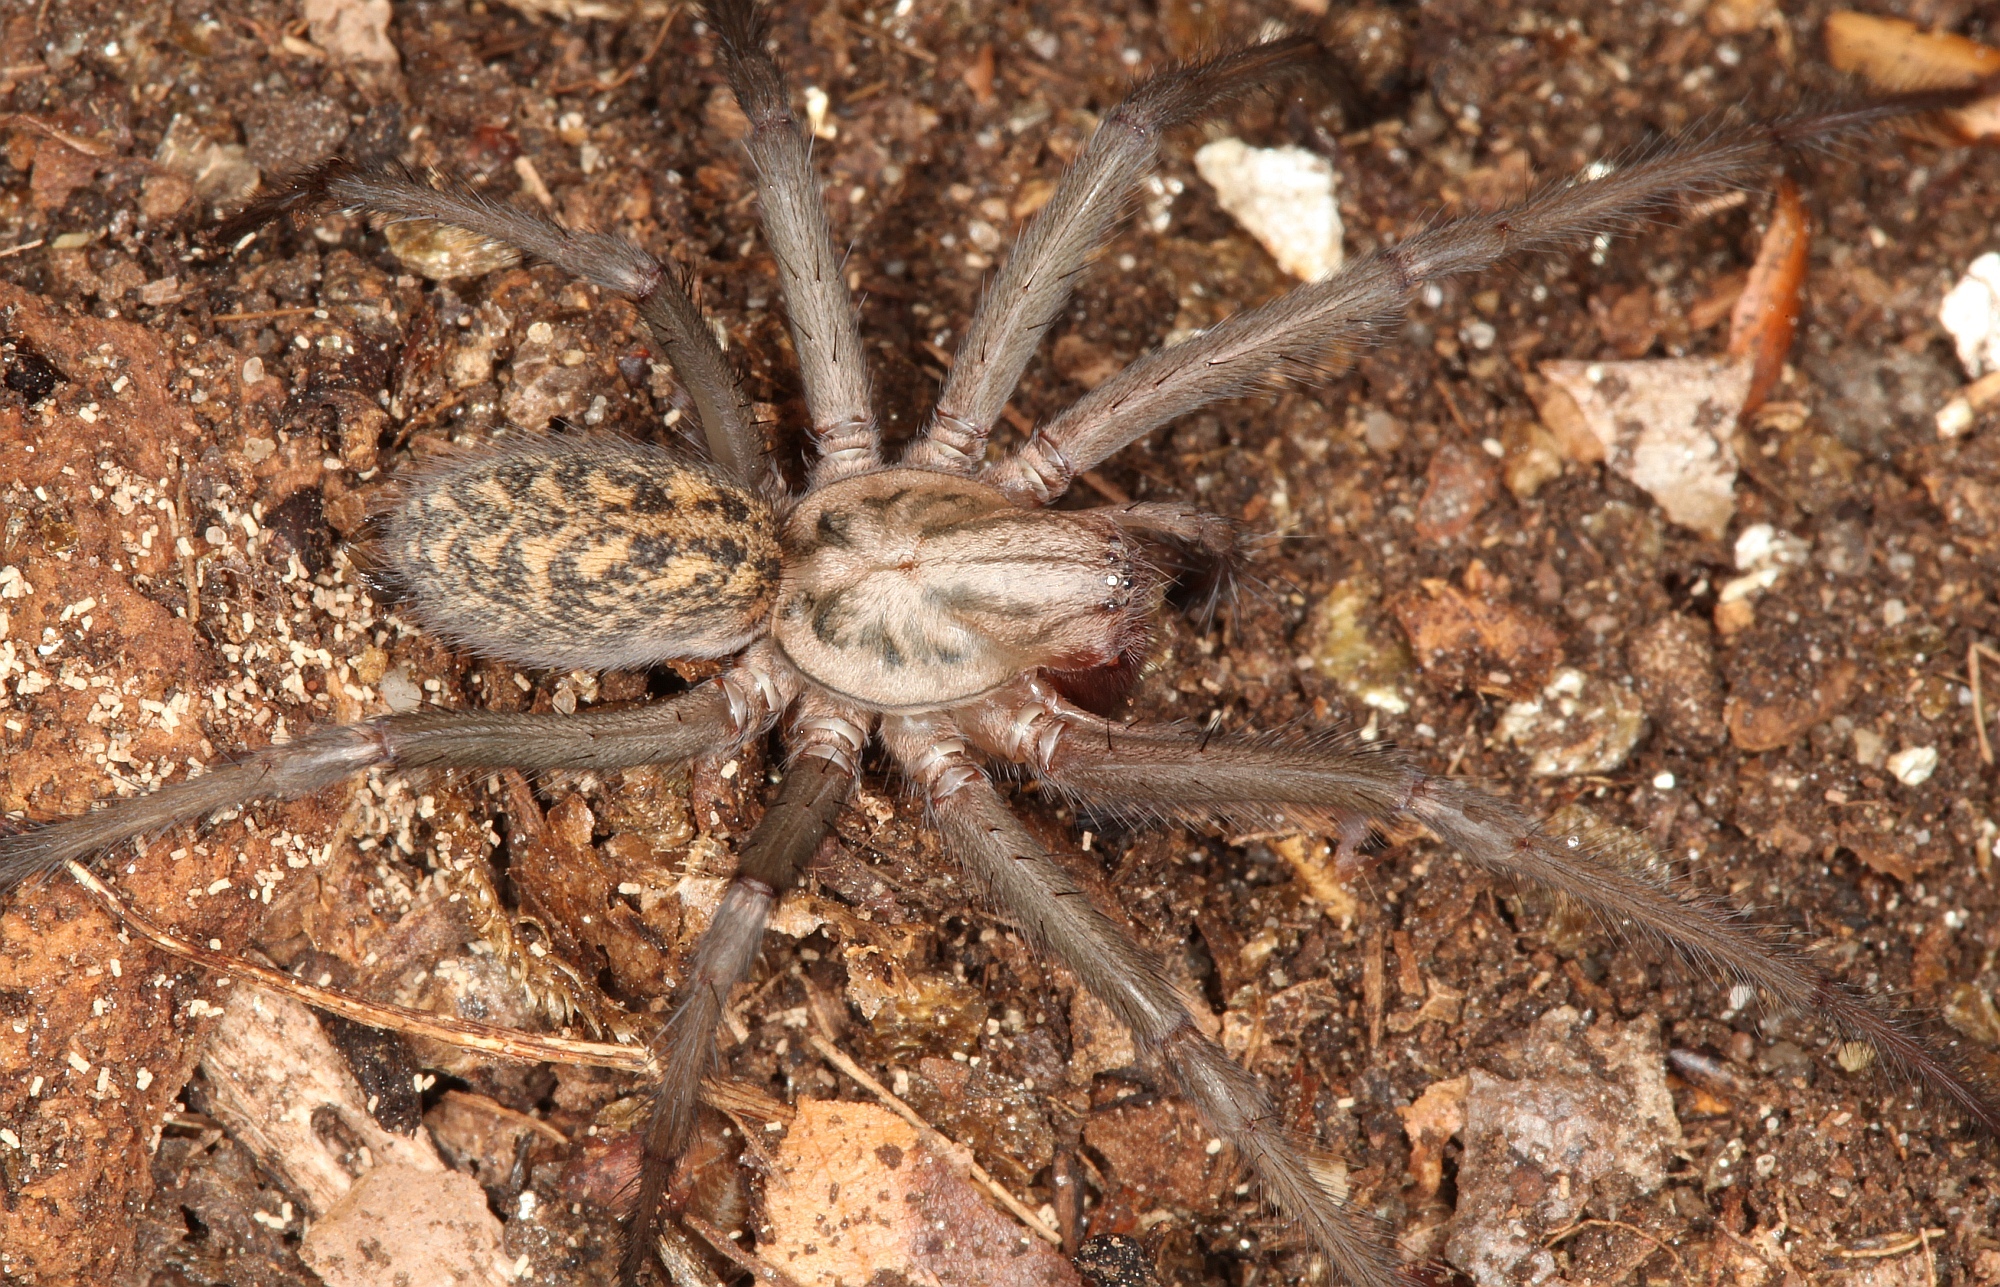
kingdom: Animalia
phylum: Arthropoda
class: Arachnida
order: Araneae
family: Agelenidae
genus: Eratigena
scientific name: Eratigena atrica
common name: Giant house spider
